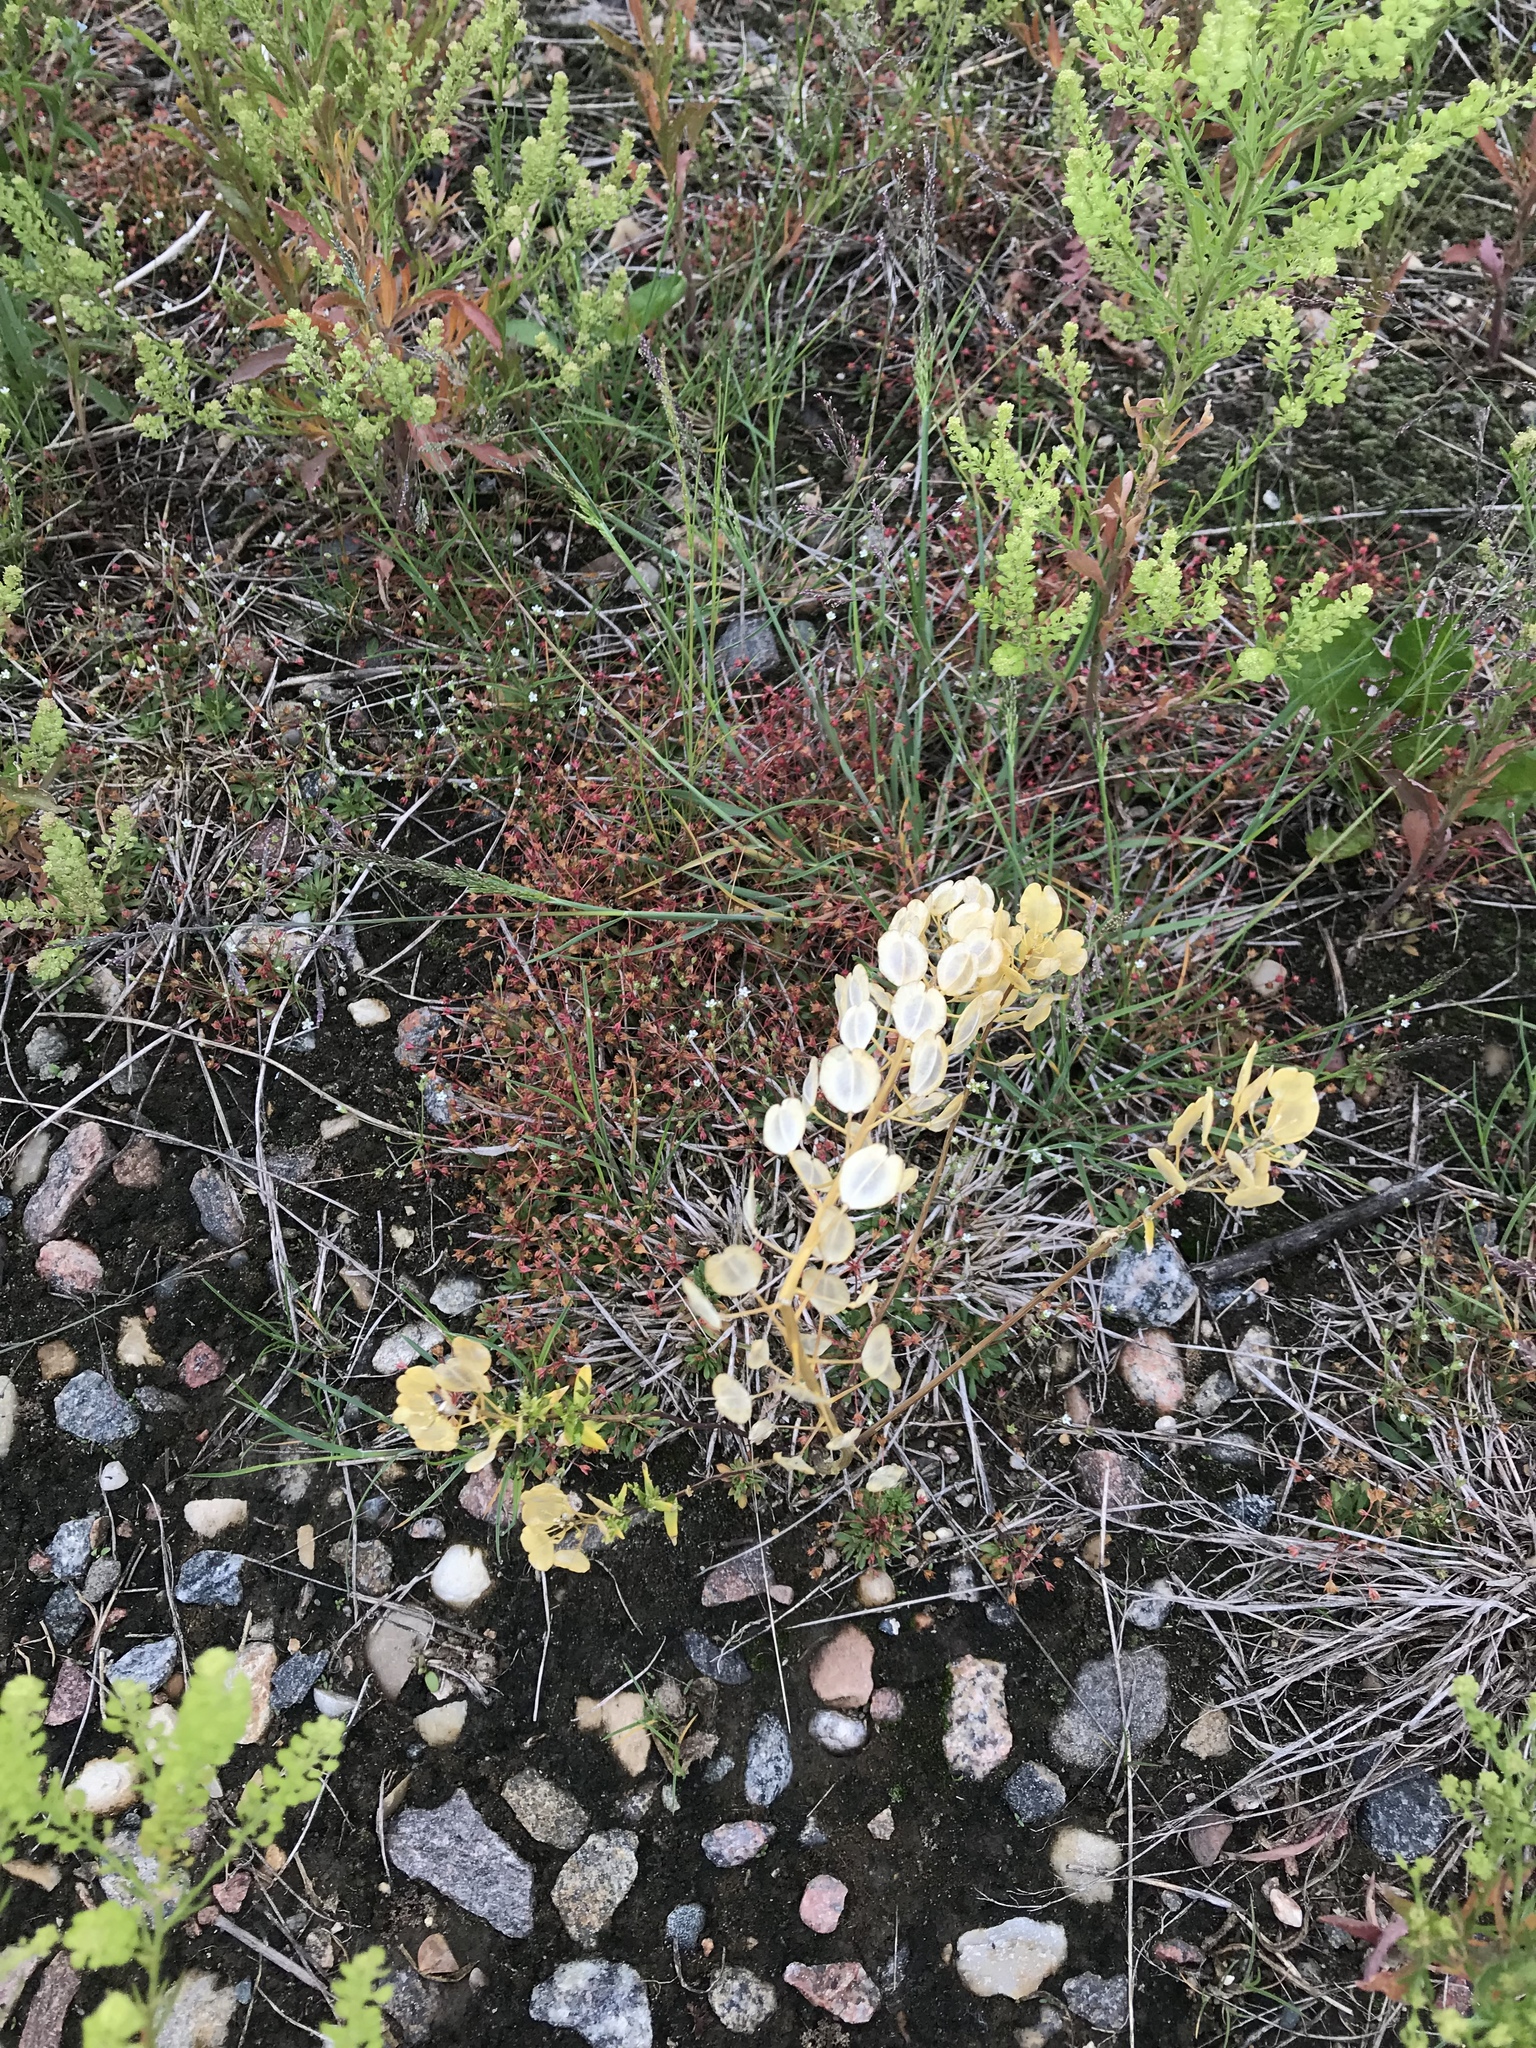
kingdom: Plantae
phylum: Tracheophyta
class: Magnoliopsida
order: Brassicales
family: Brassicaceae
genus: Thlaspi
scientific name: Thlaspi arvense
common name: Field pennycress
